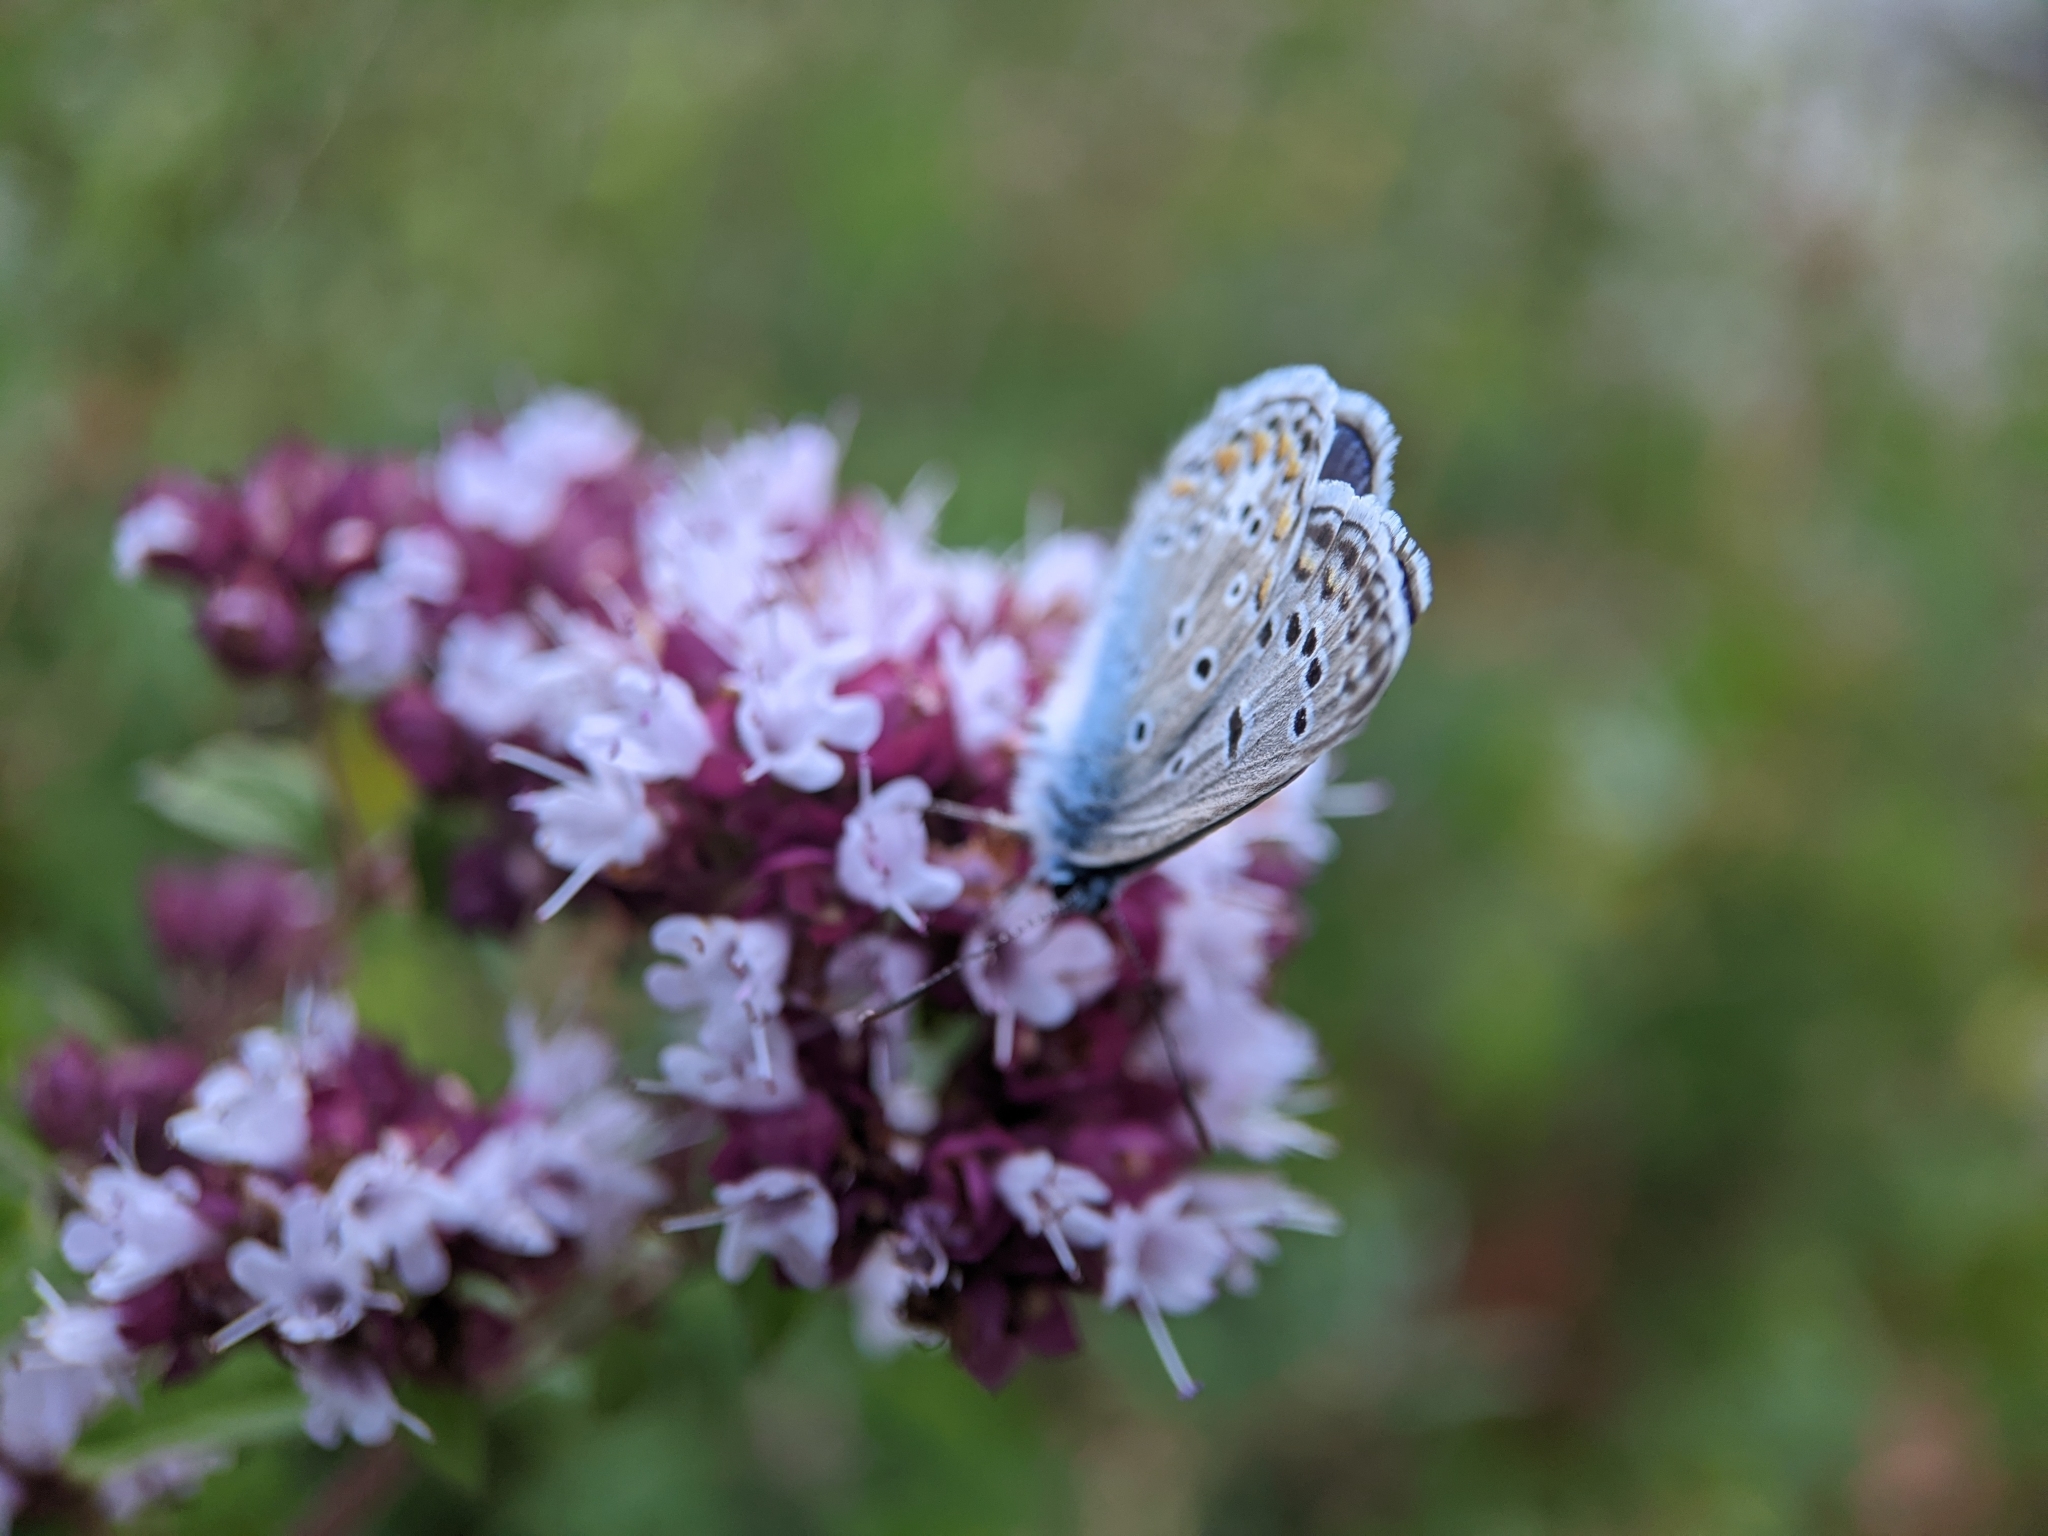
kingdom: Animalia
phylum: Arthropoda
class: Insecta
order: Lepidoptera
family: Lycaenidae
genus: Polyommatus
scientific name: Polyommatus icarus
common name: Common blue
